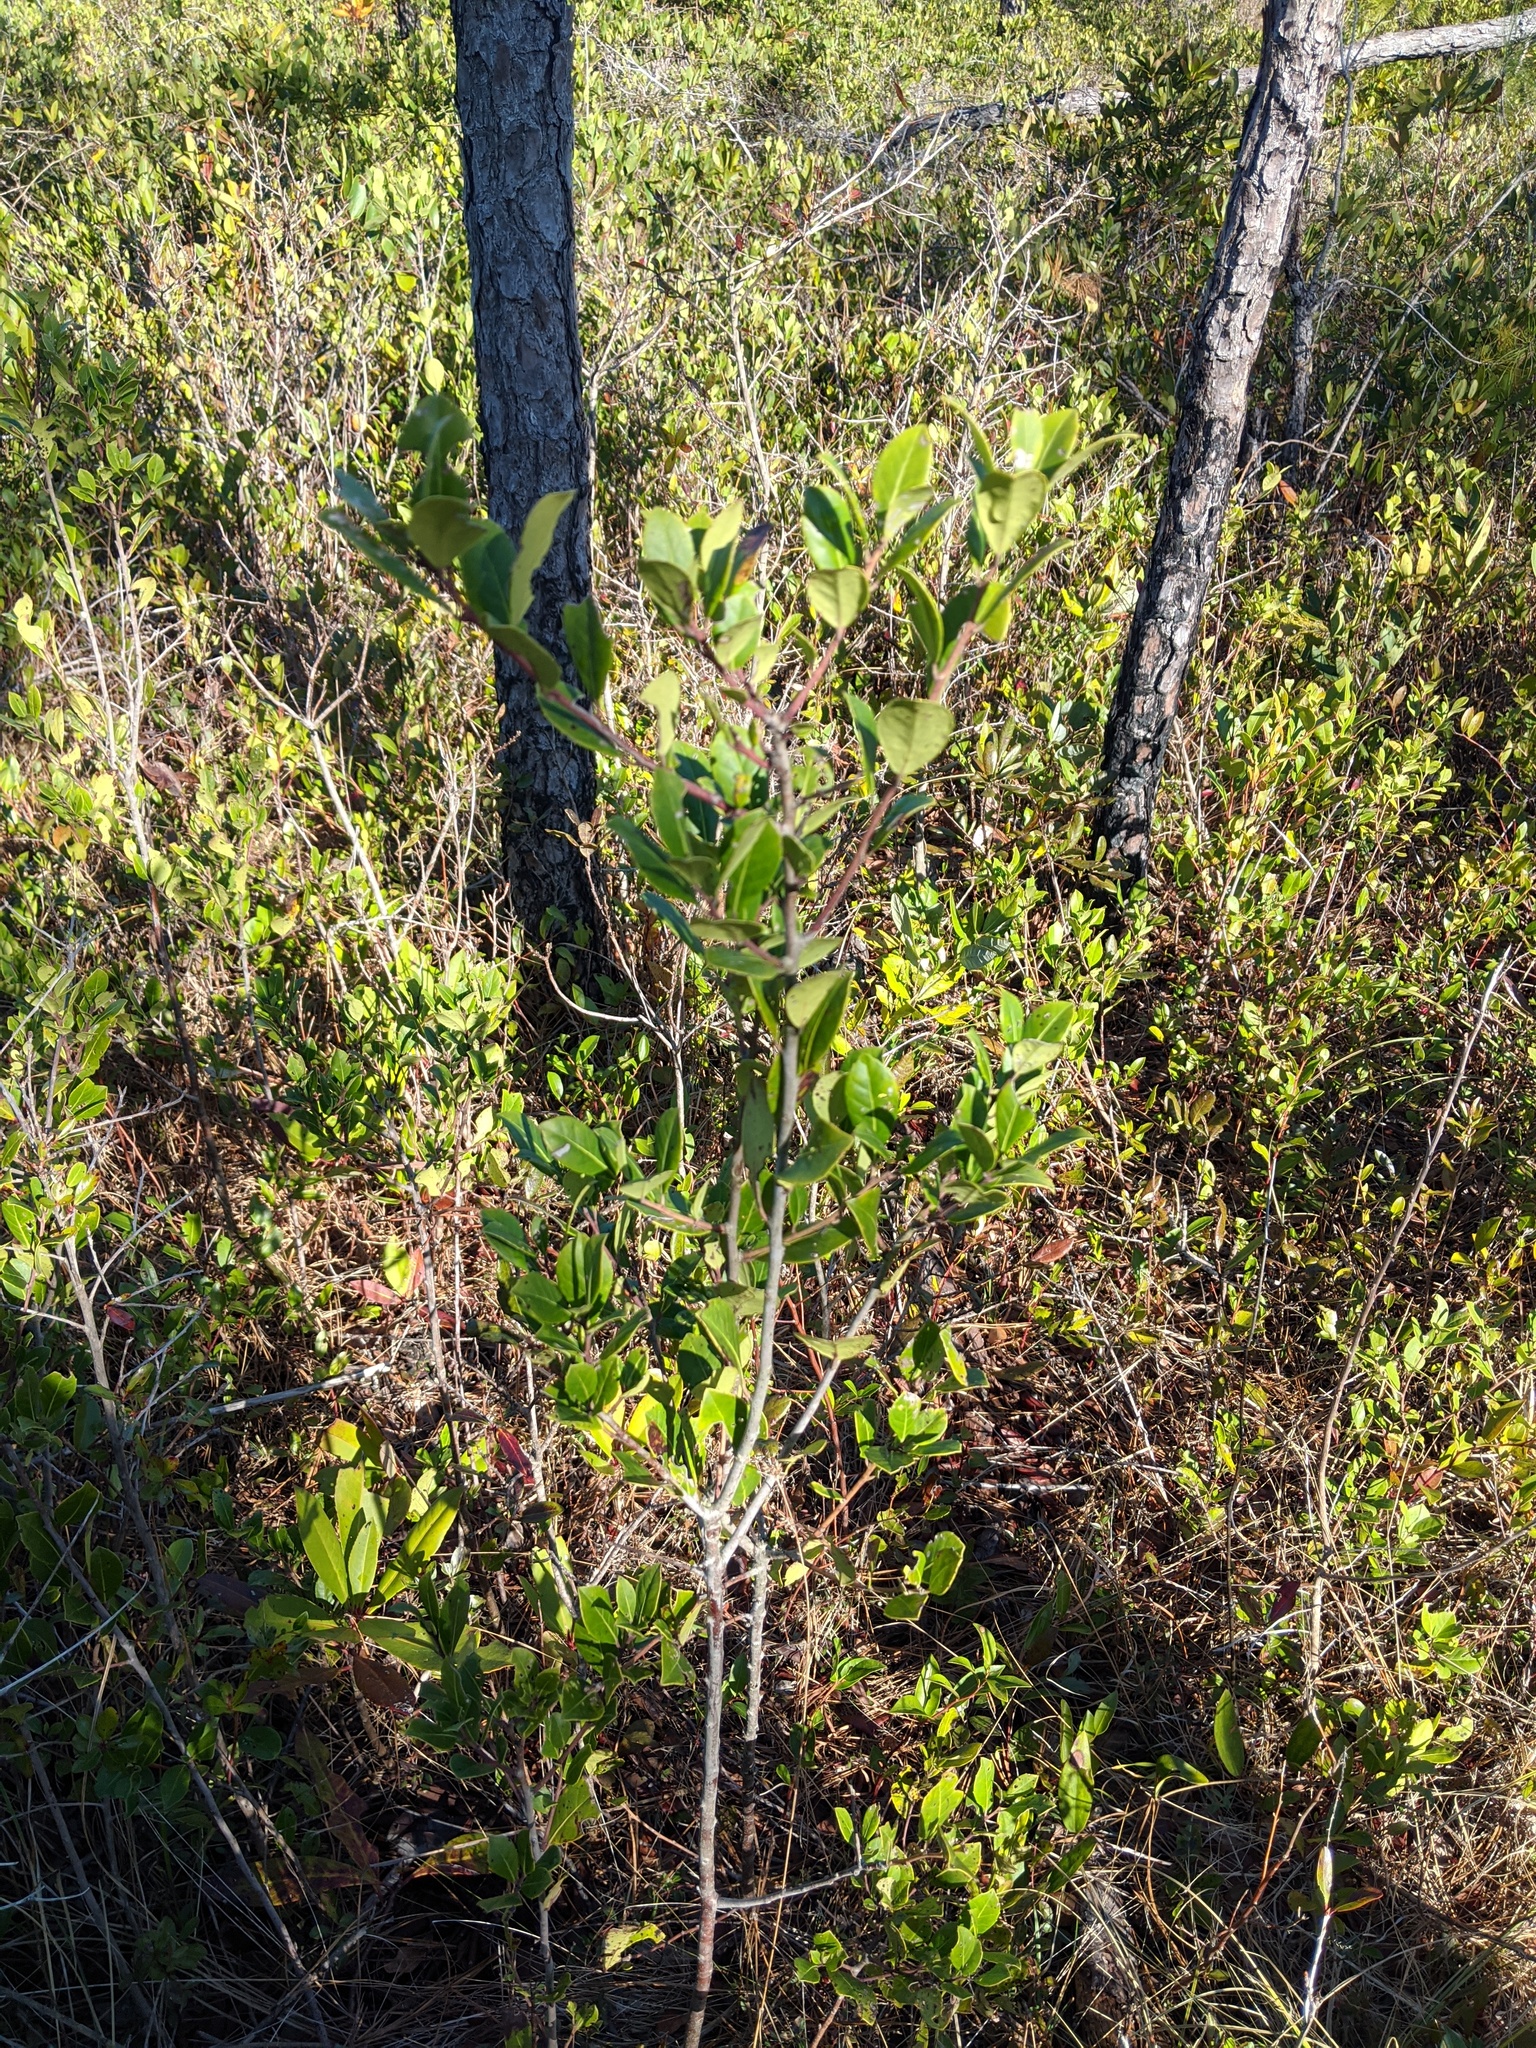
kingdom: Plantae
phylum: Tracheophyta
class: Magnoliopsida
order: Aquifoliales
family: Aquifoliaceae
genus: Ilex
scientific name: Ilex coriacea
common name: Sweet gallberry
